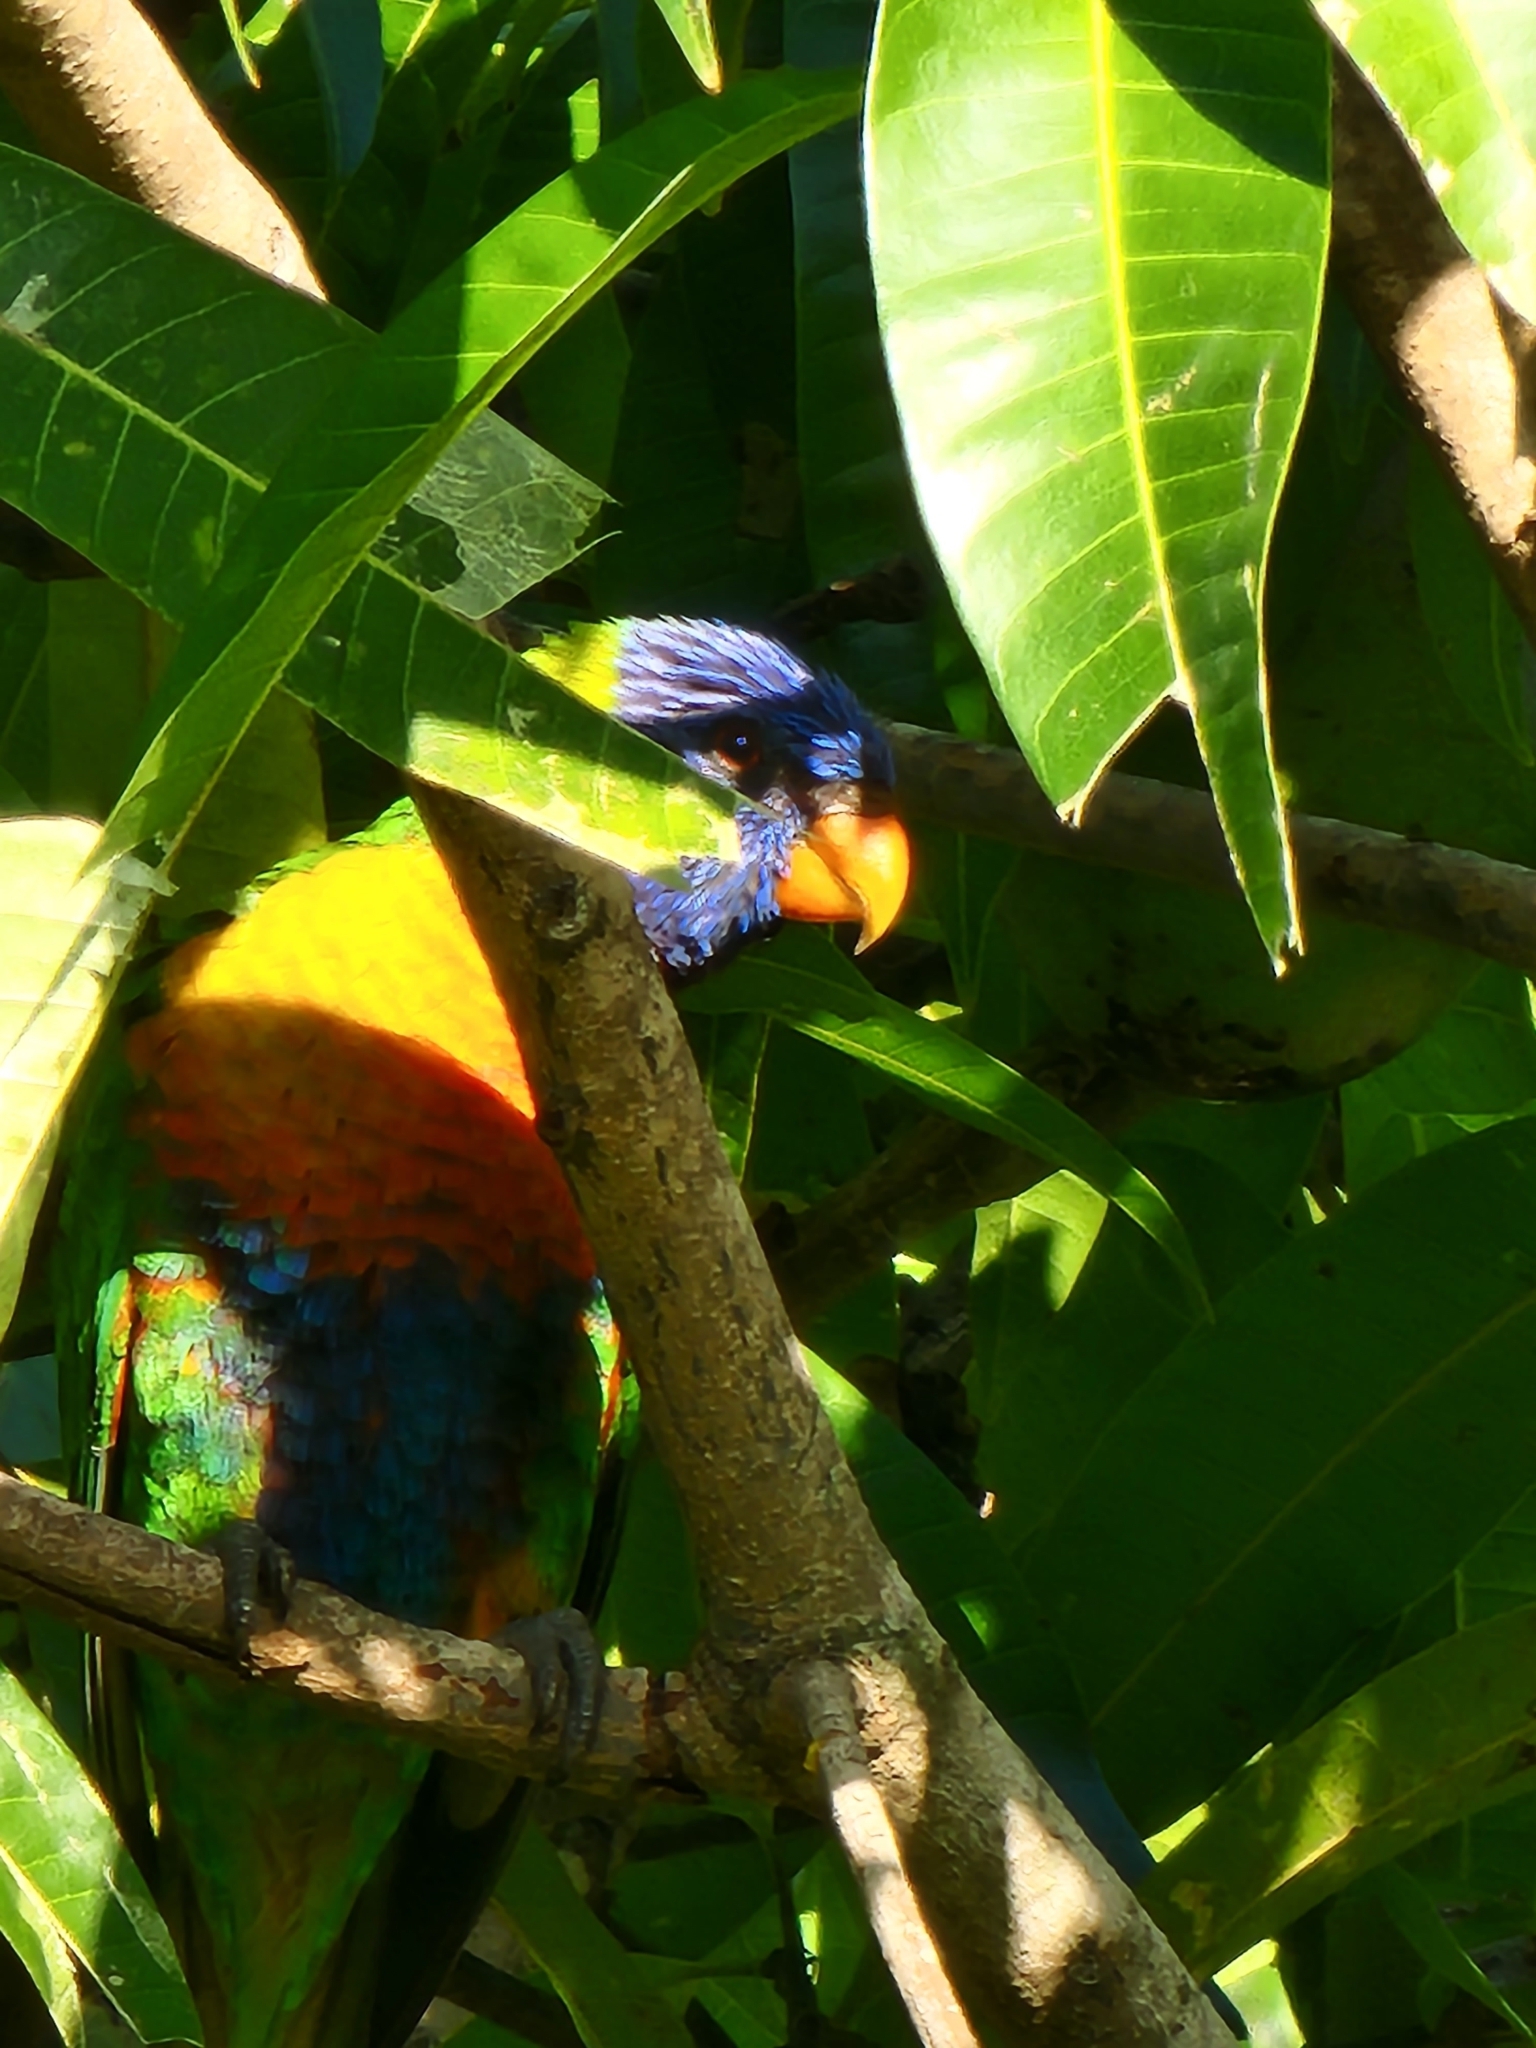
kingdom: Animalia
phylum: Chordata
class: Aves
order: Psittaciformes
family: Psittacidae
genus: Trichoglossus
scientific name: Trichoglossus haematodus
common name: Coconut lorikeet
